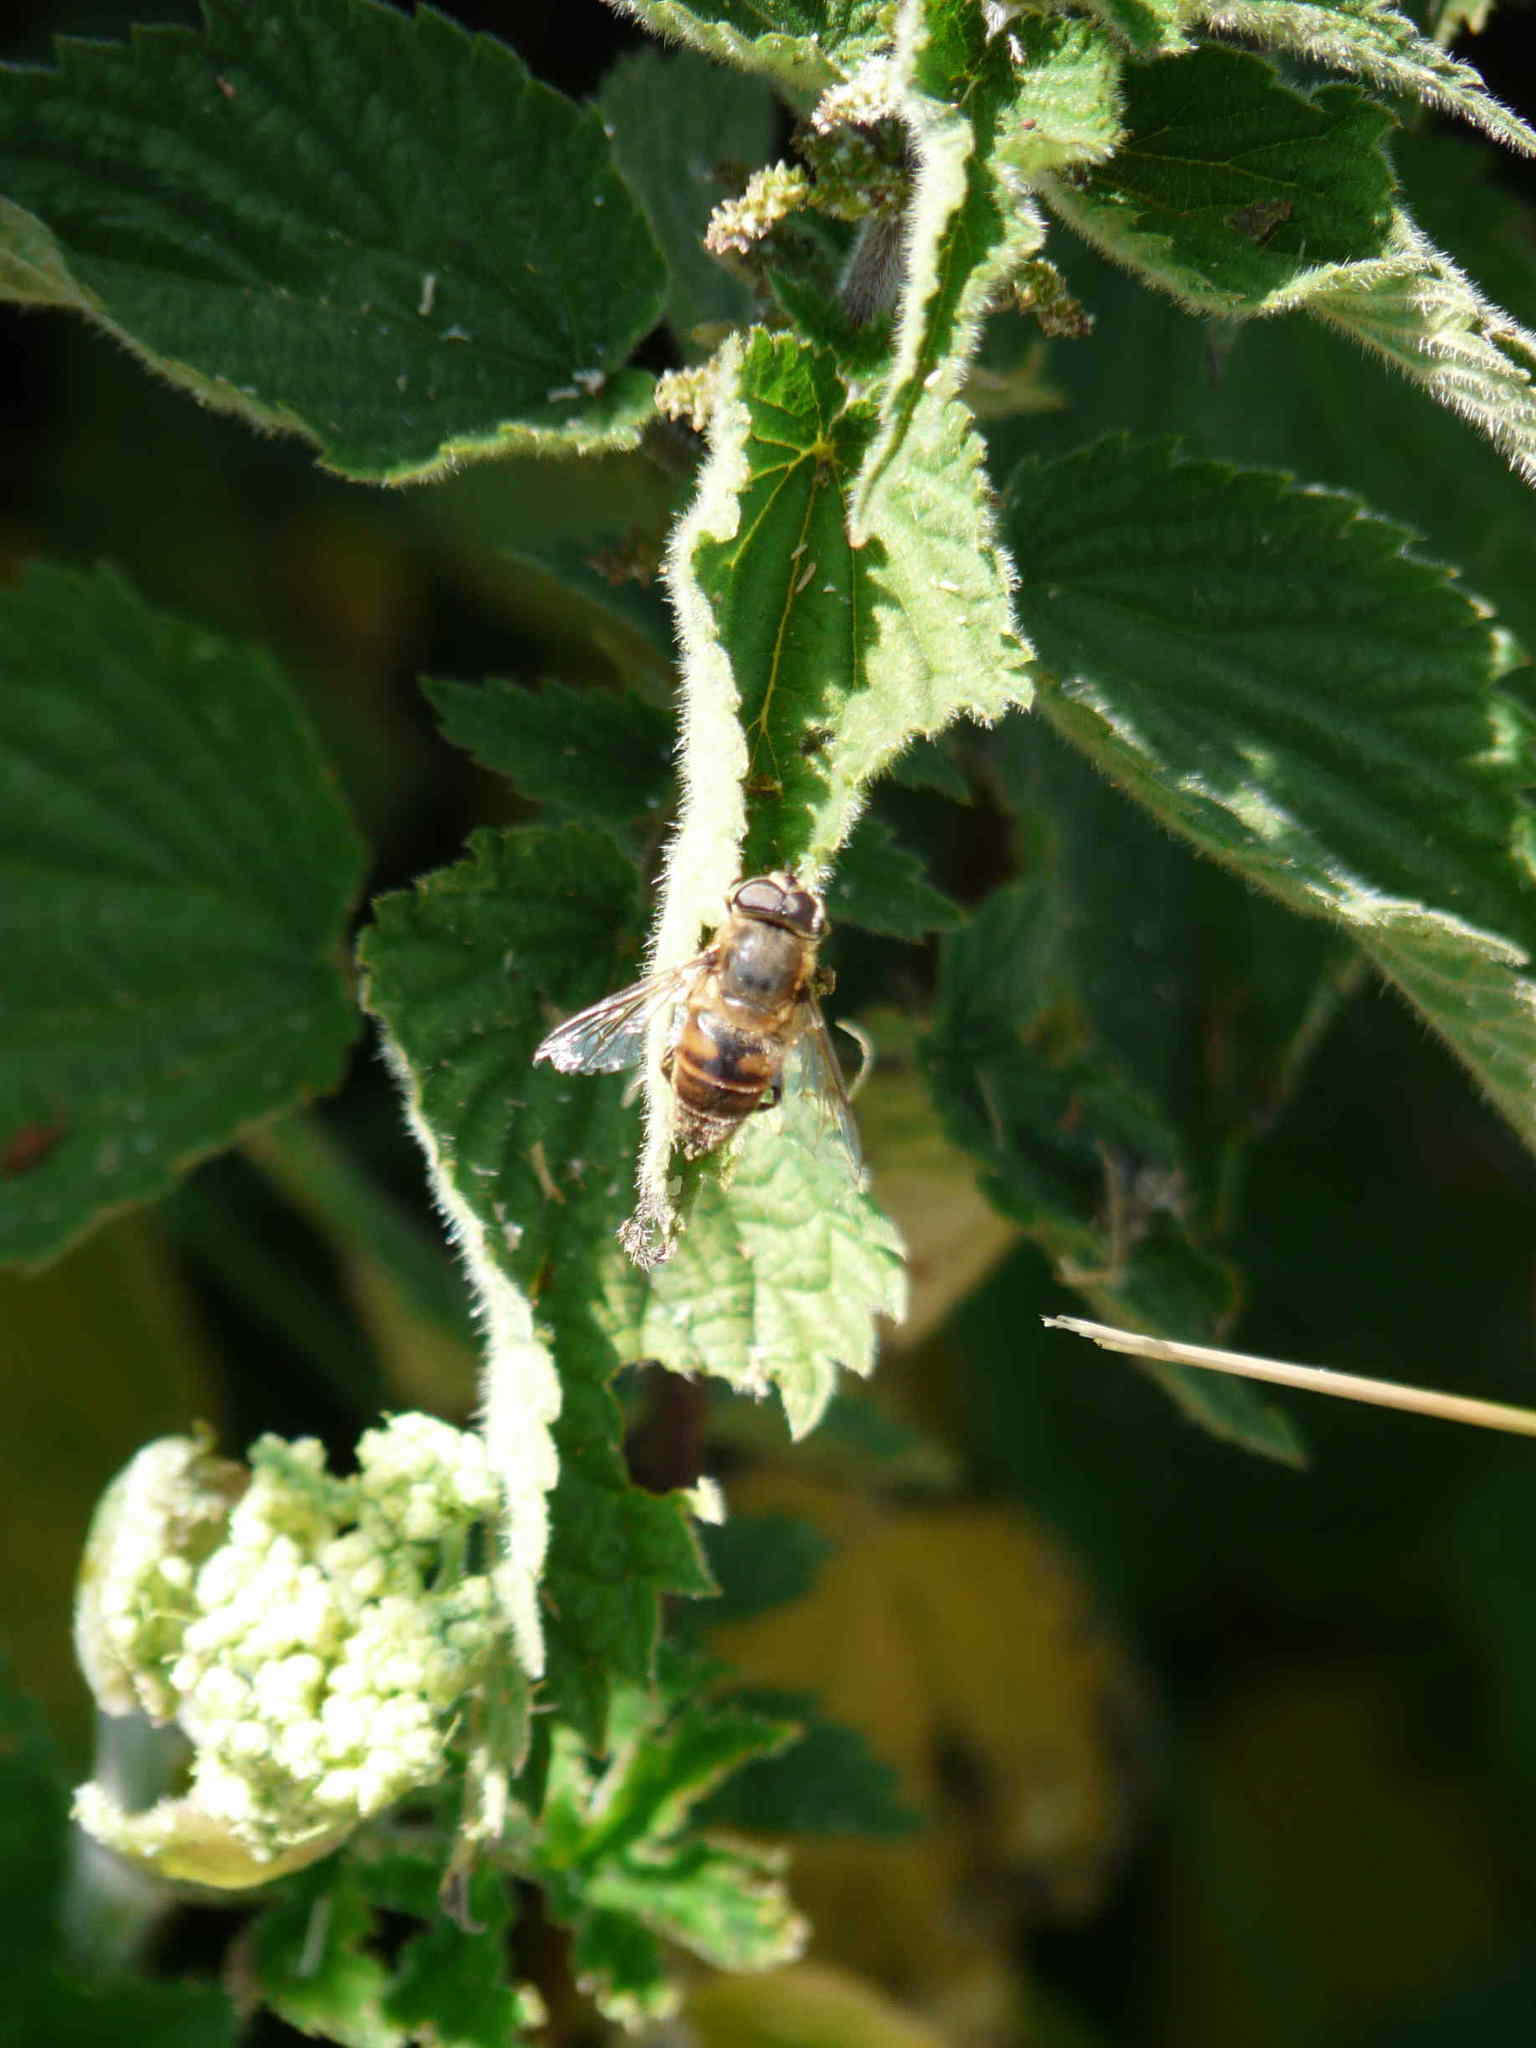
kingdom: Animalia
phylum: Arthropoda
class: Insecta
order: Diptera
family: Syrphidae
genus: Eristalis
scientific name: Eristalis tenax
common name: Drone fly
